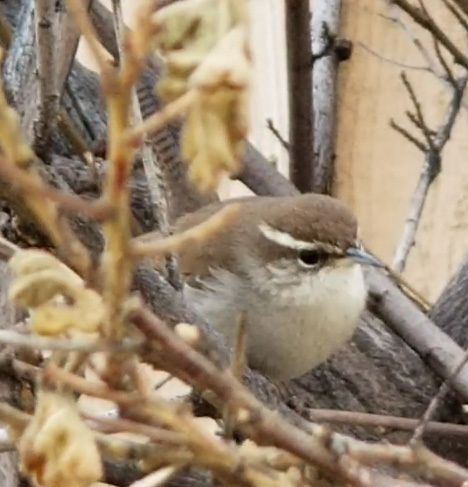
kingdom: Animalia
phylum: Chordata
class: Aves
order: Passeriformes
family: Troglodytidae
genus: Thryomanes
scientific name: Thryomanes bewickii
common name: Bewick's wren
